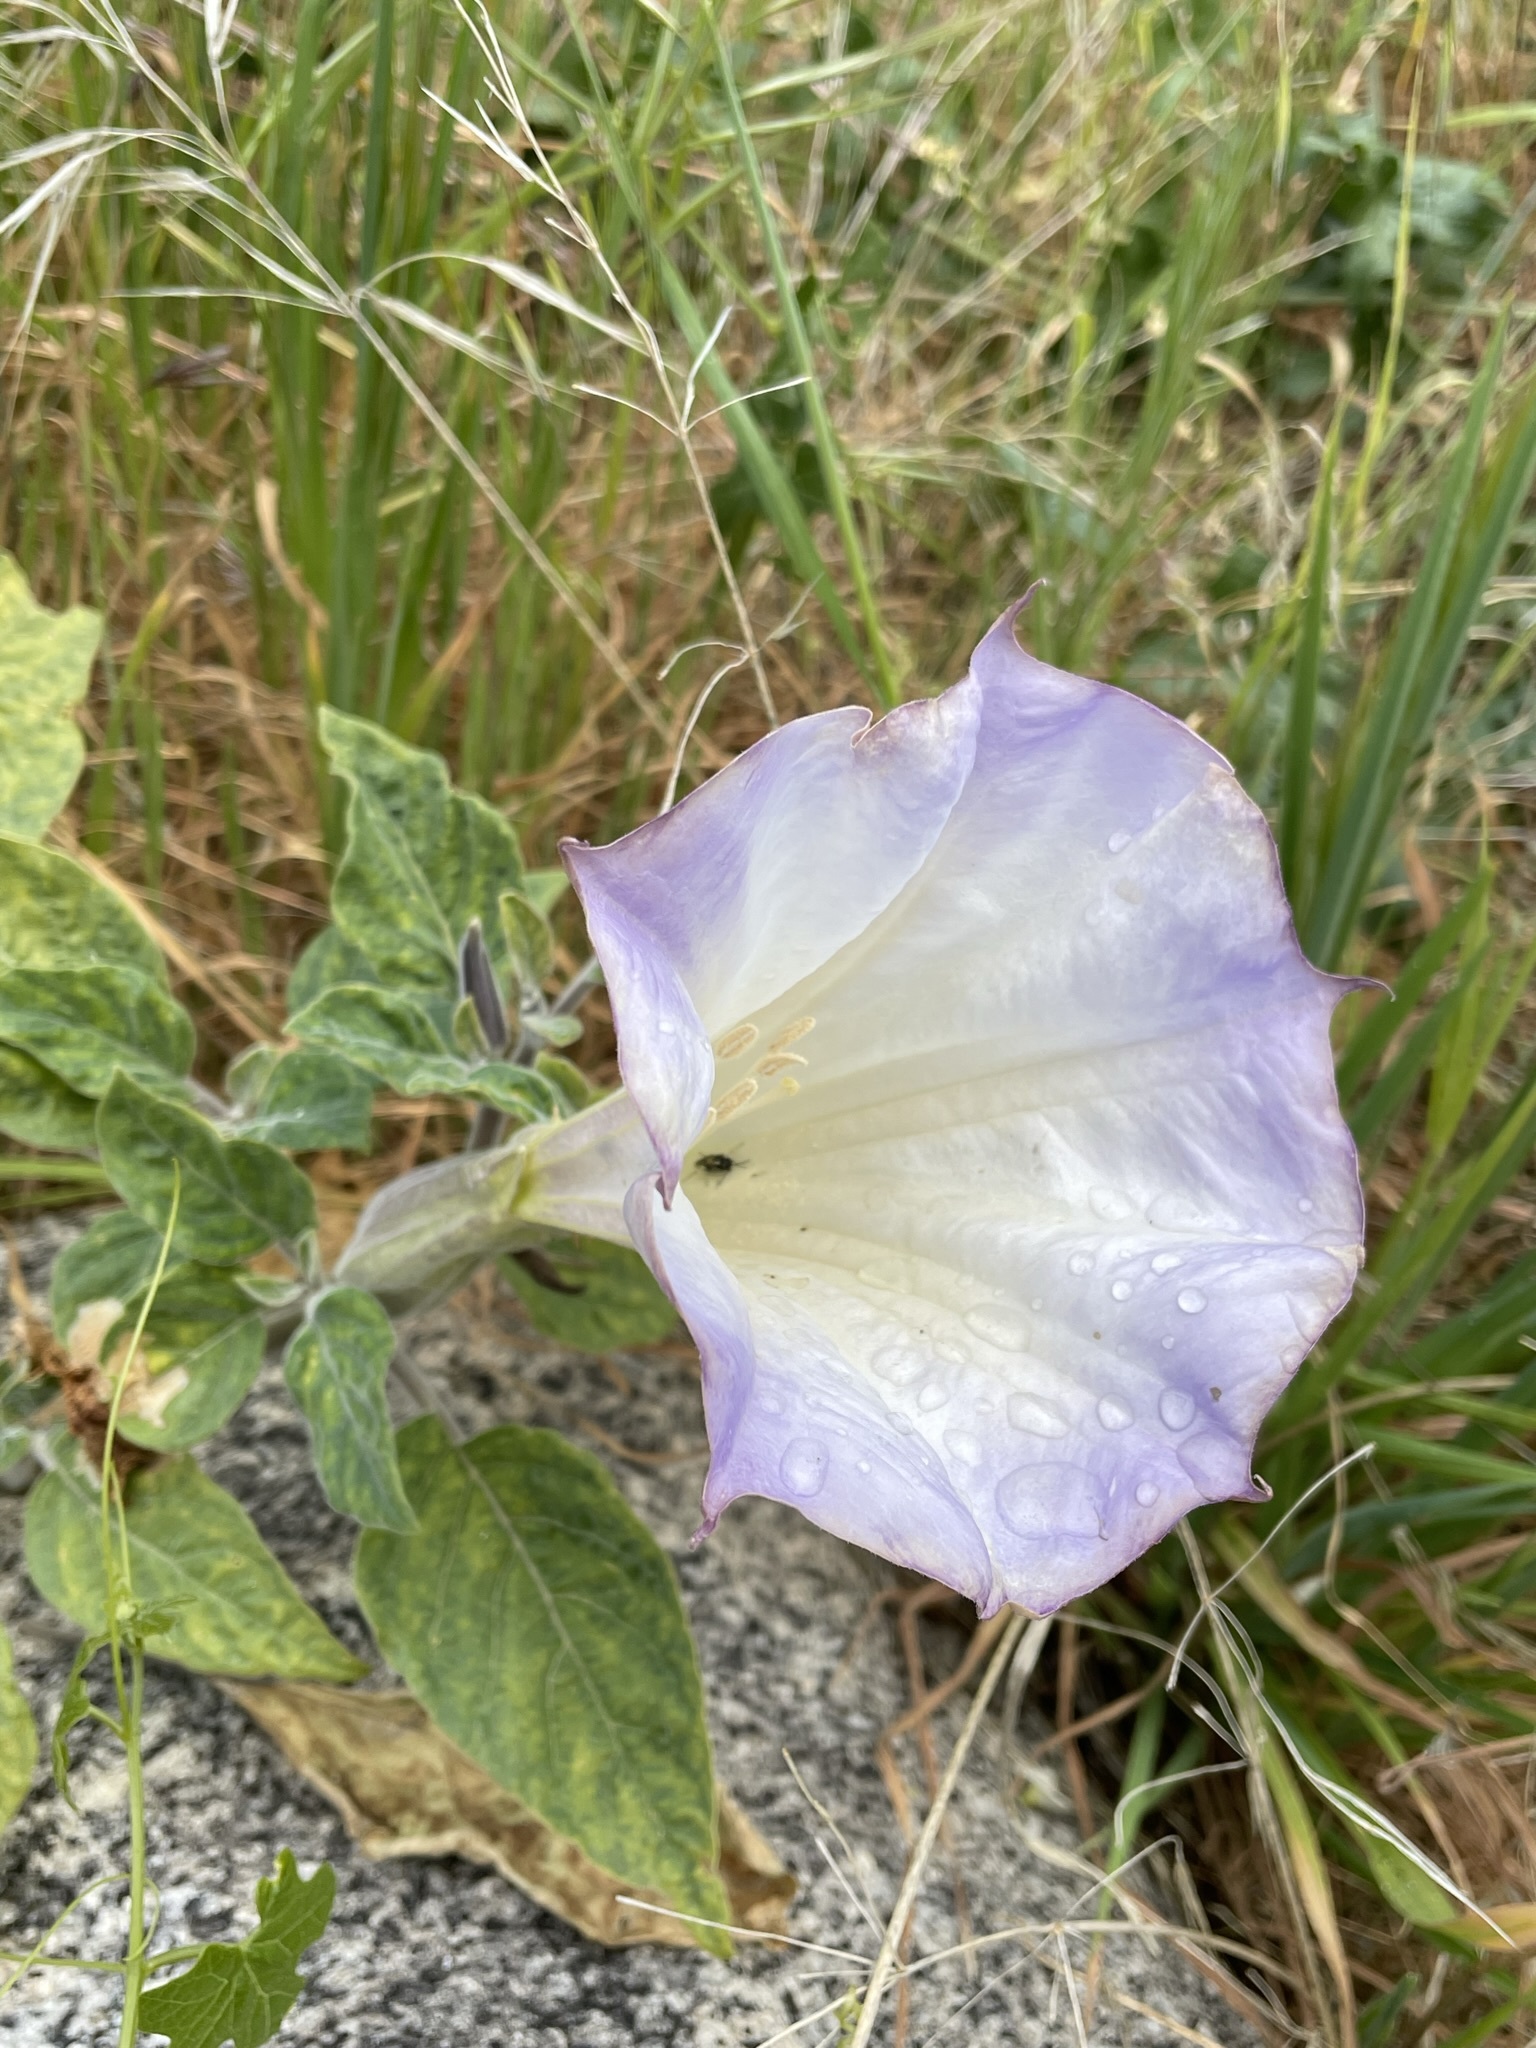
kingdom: Plantae
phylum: Tracheophyta
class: Magnoliopsida
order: Solanales
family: Solanaceae
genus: Datura
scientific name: Datura wrightii
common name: Sacred thorn-apple
